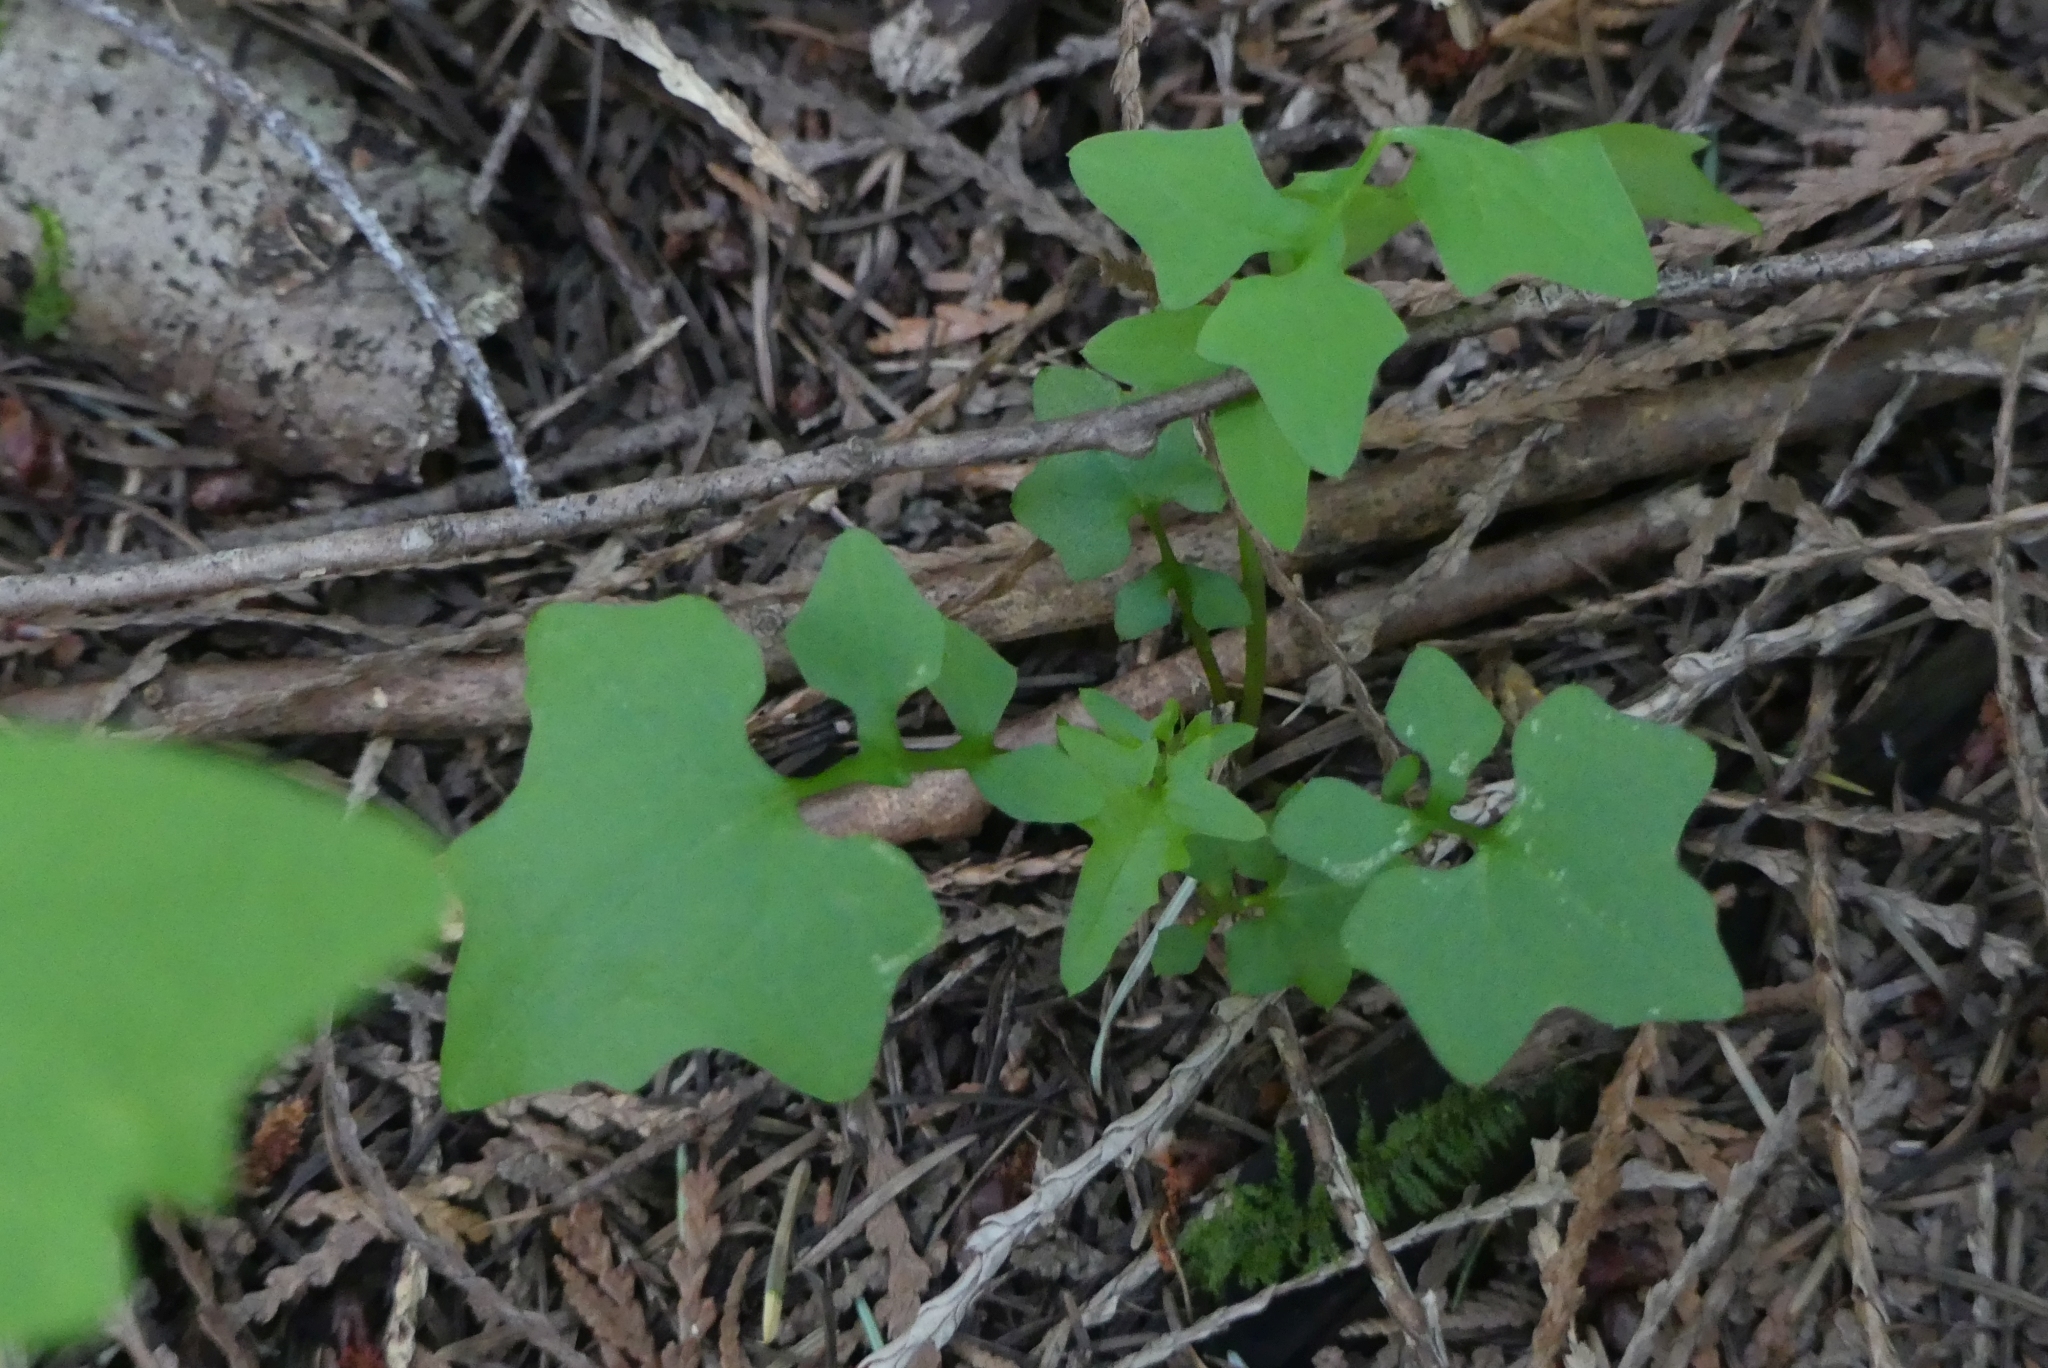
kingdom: Plantae
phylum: Tracheophyta
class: Magnoliopsida
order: Asterales
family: Asteraceae
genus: Mycelis
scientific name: Mycelis muralis
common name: Wall lettuce
